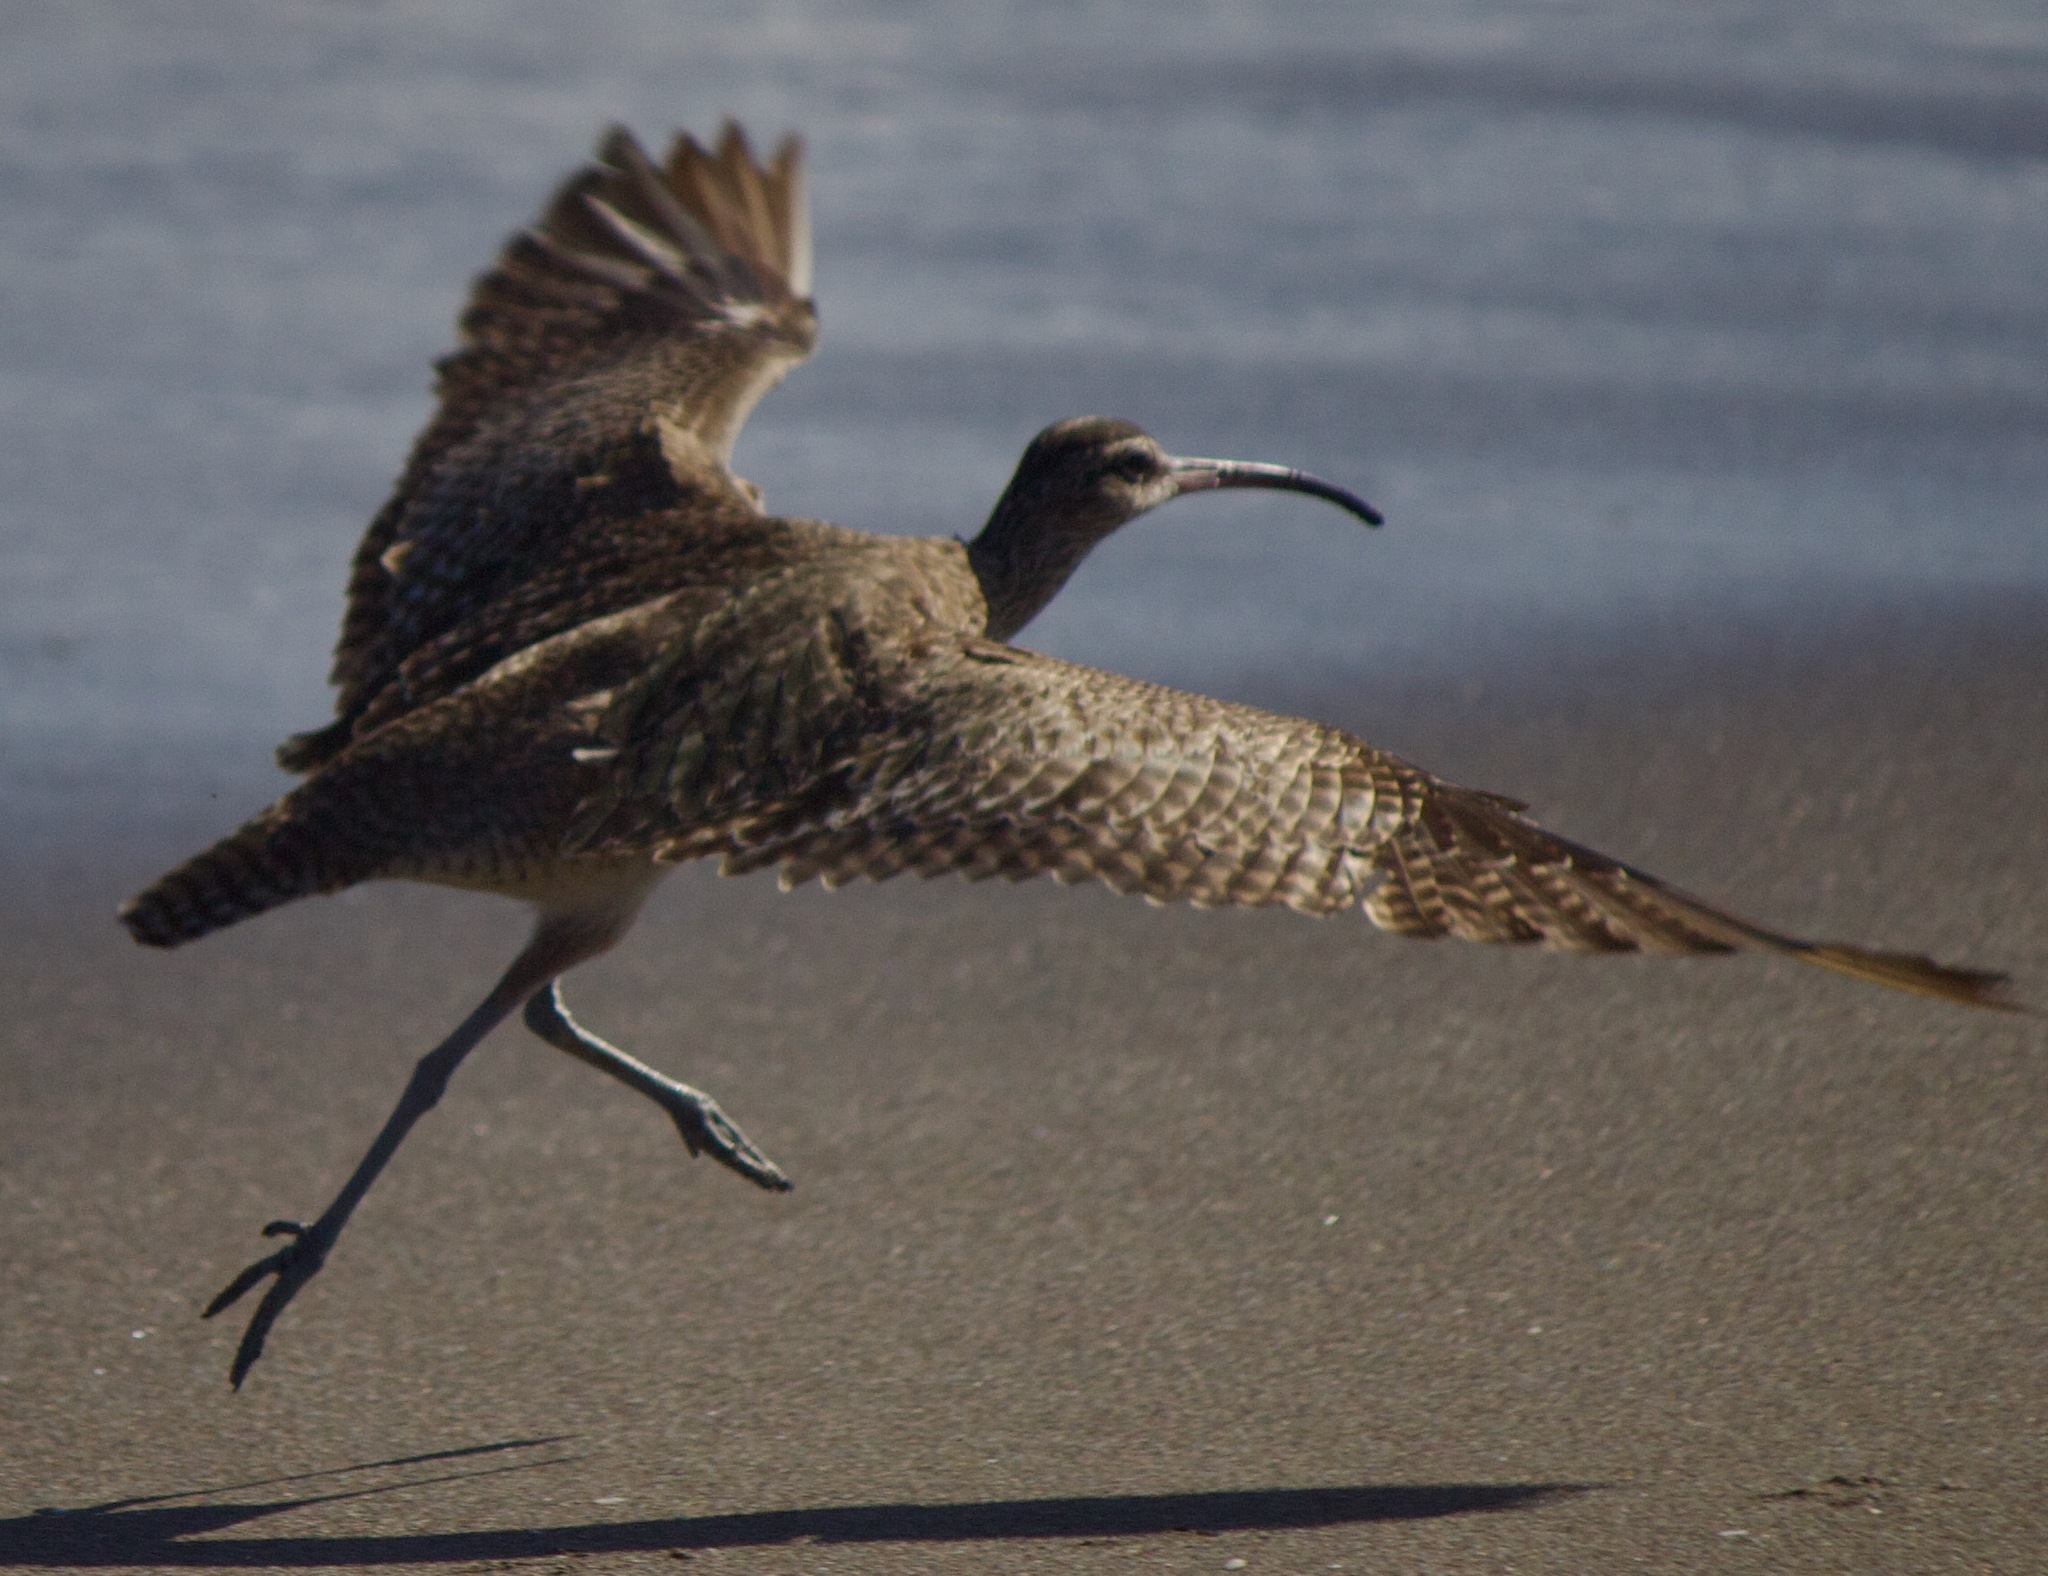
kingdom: Animalia
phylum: Chordata
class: Aves
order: Charadriiformes
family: Scolopacidae
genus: Numenius
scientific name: Numenius phaeopus
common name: Whimbrel
